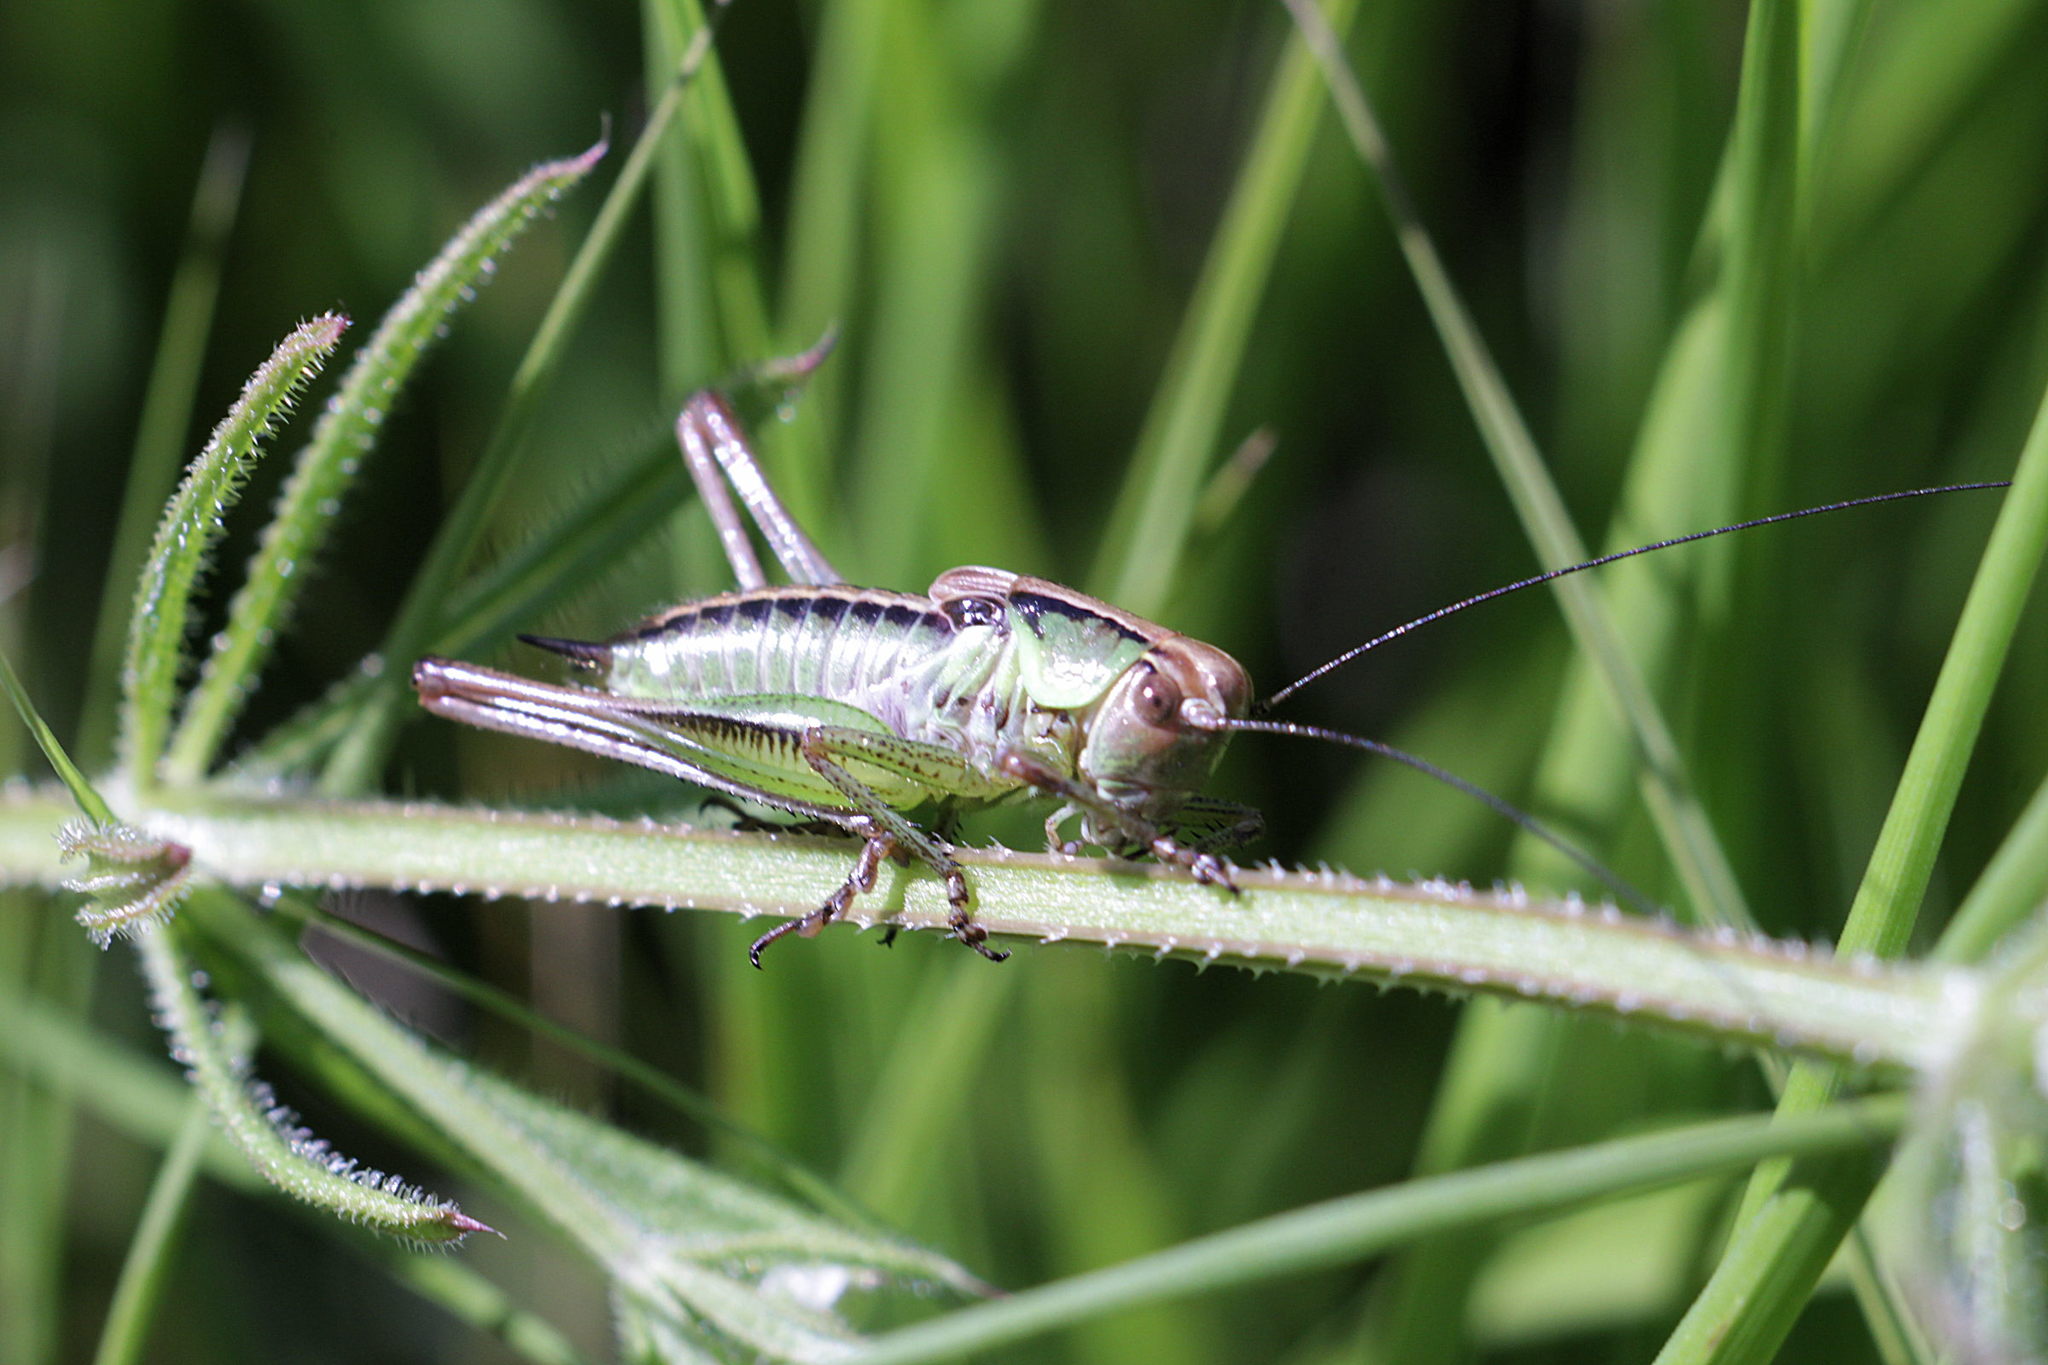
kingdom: Animalia
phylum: Arthropoda
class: Insecta
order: Orthoptera
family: Tettigoniidae
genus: Roeseliana
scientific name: Roeseliana roeselii
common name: Roesel's bush cricket
